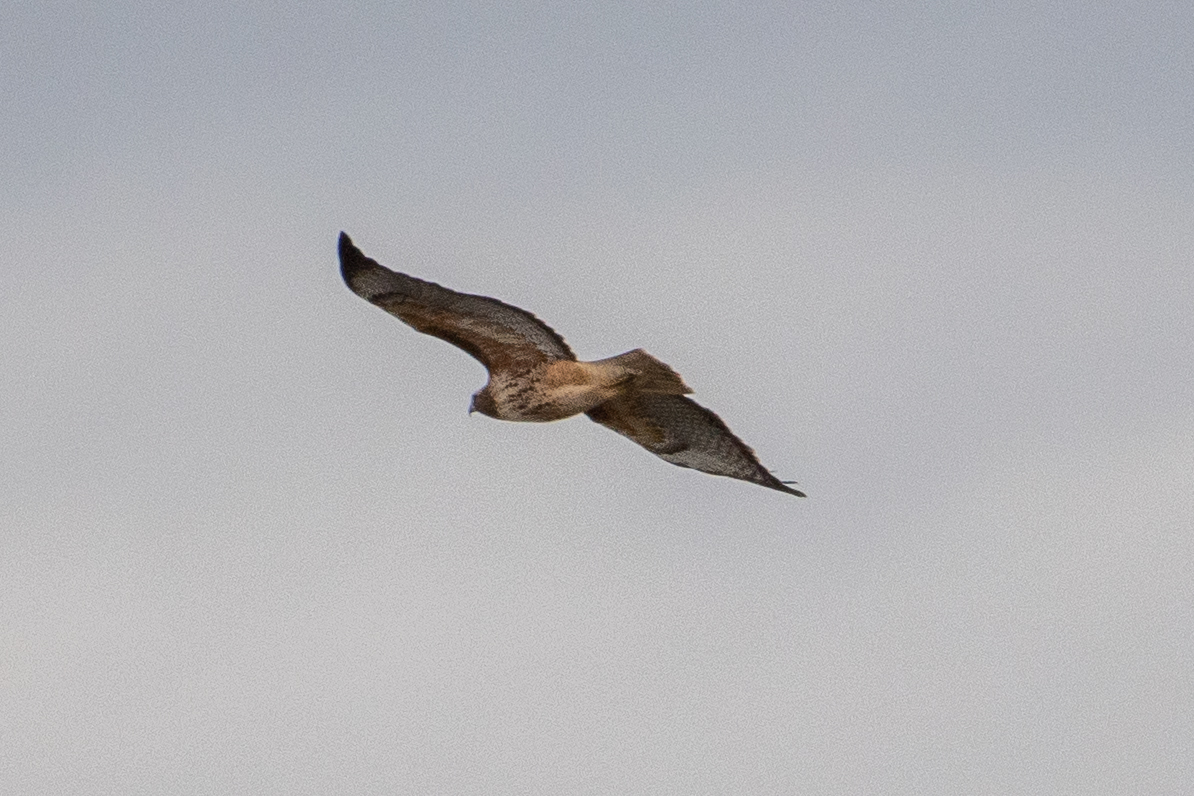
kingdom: Animalia
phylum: Chordata
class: Aves
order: Accipitriformes
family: Accipitridae
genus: Buteo
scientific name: Buteo jamaicensis
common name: Red-tailed hawk
